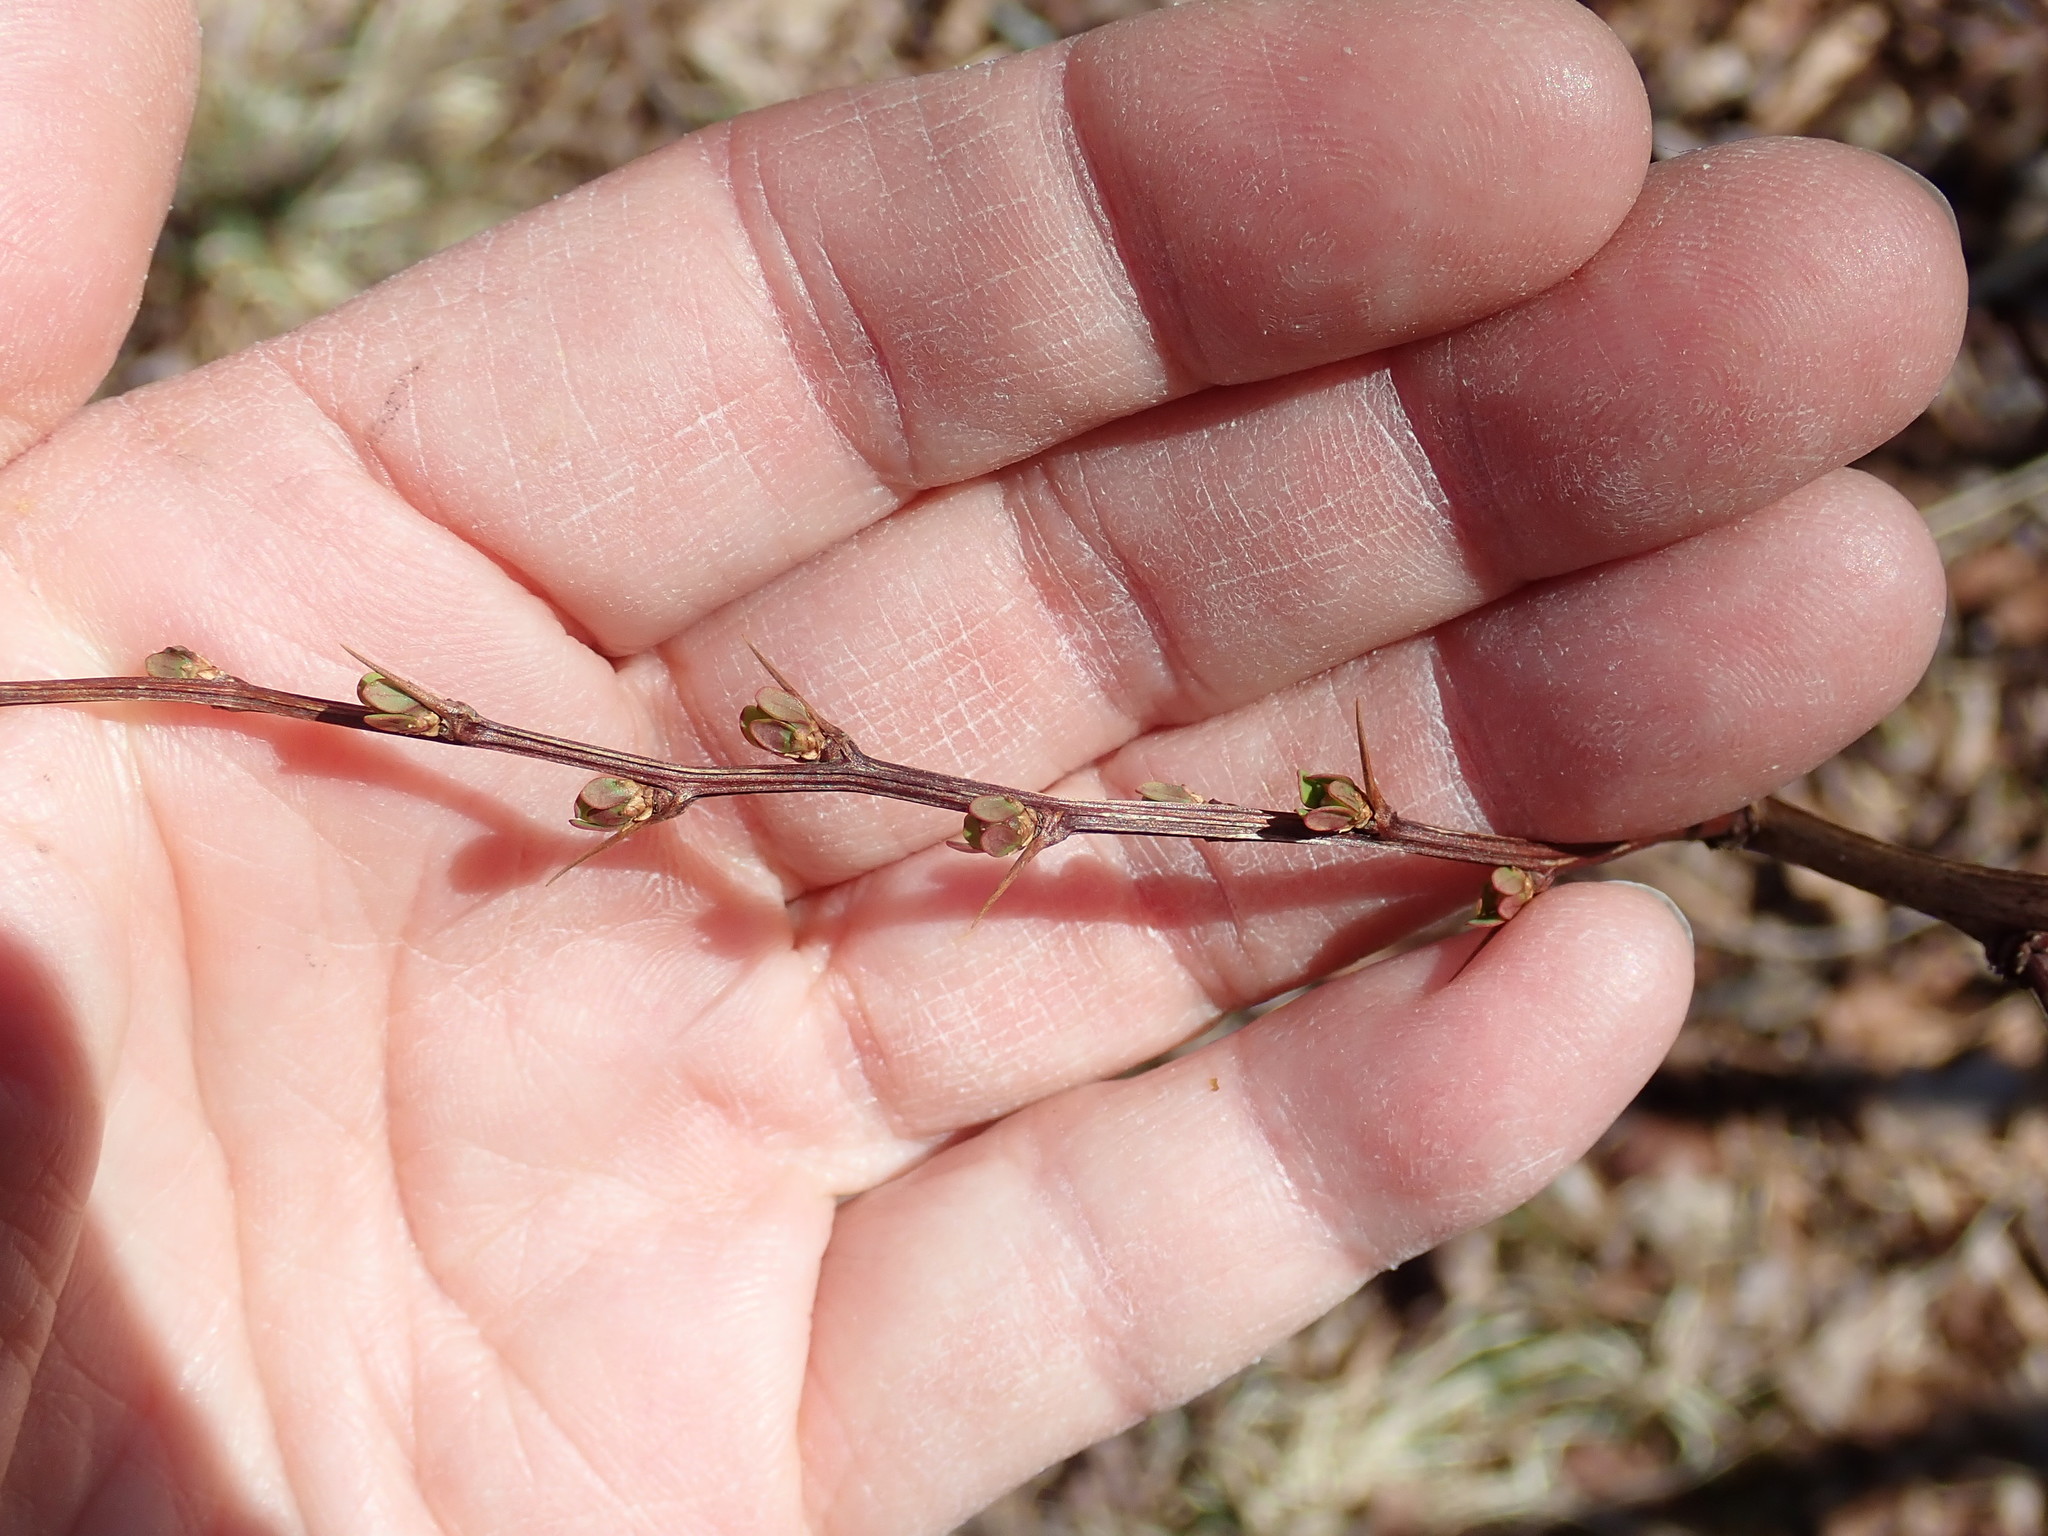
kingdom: Plantae
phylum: Tracheophyta
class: Magnoliopsida
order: Ranunculales
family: Berberidaceae
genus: Berberis
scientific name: Berberis thunbergii
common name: Japanese barberry
